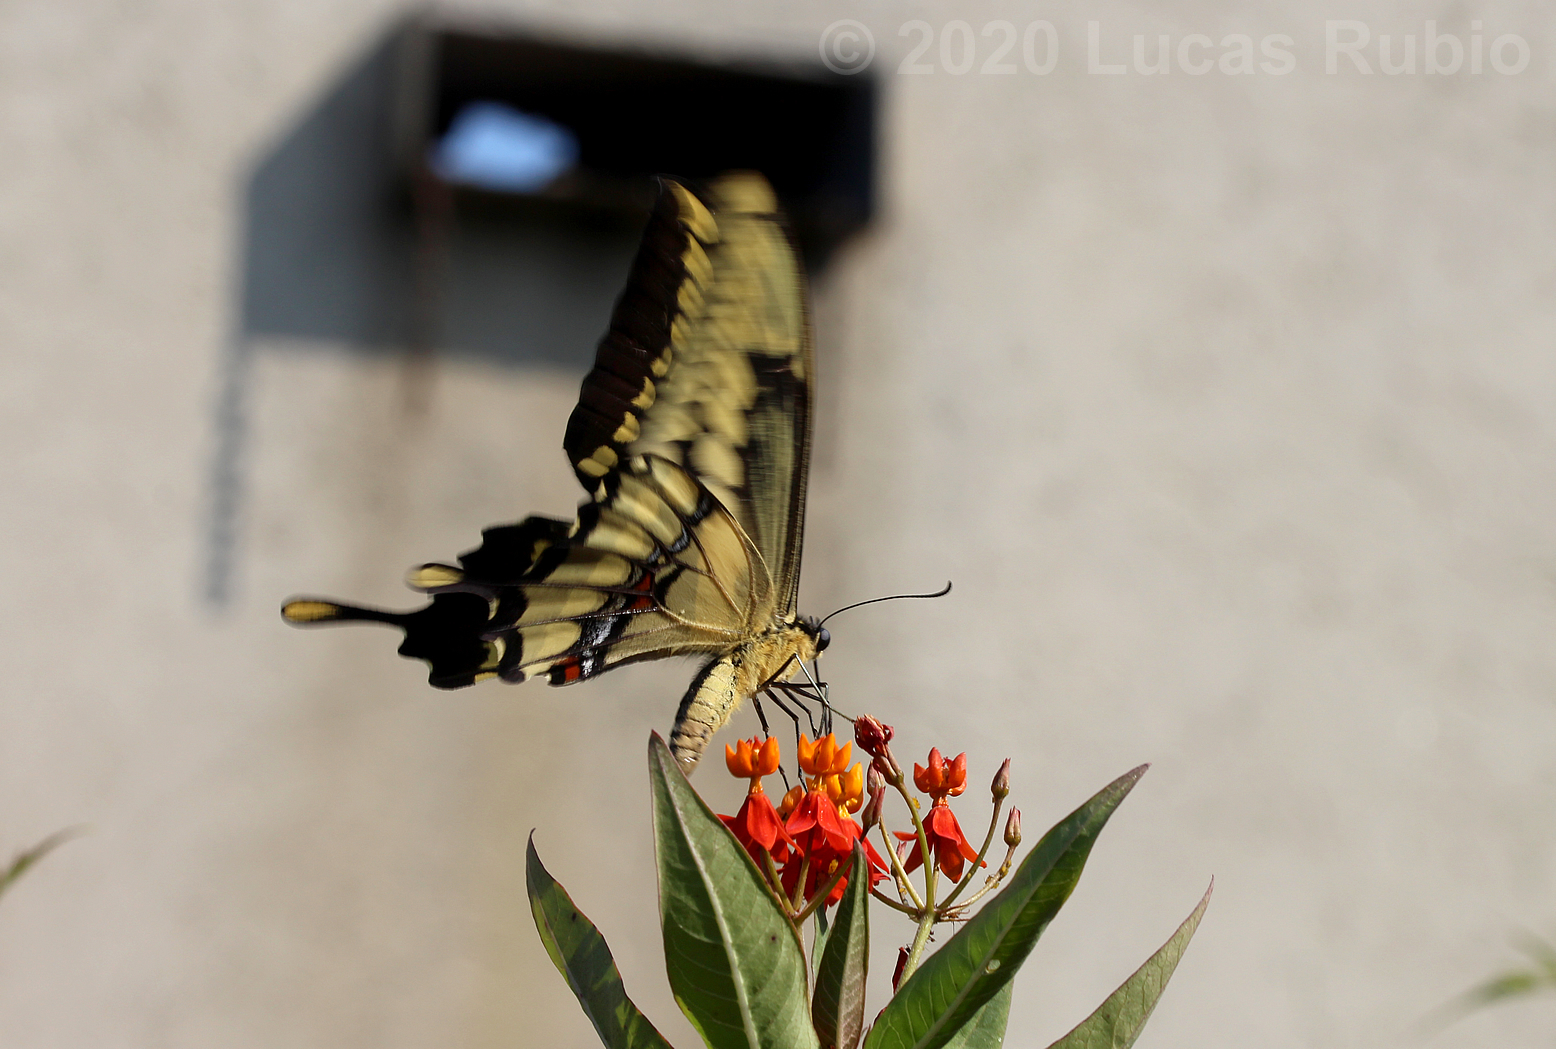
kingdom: Animalia
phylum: Arthropoda
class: Insecta
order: Lepidoptera
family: Papilionidae
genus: Papilio
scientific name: Papilio thoas
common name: King swallowtail
